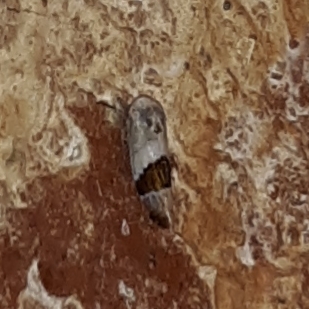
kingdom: Animalia
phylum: Arthropoda
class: Insecta
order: Hemiptera
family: Cicadellidae
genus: Norvellina
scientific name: Norvellina seminuda
